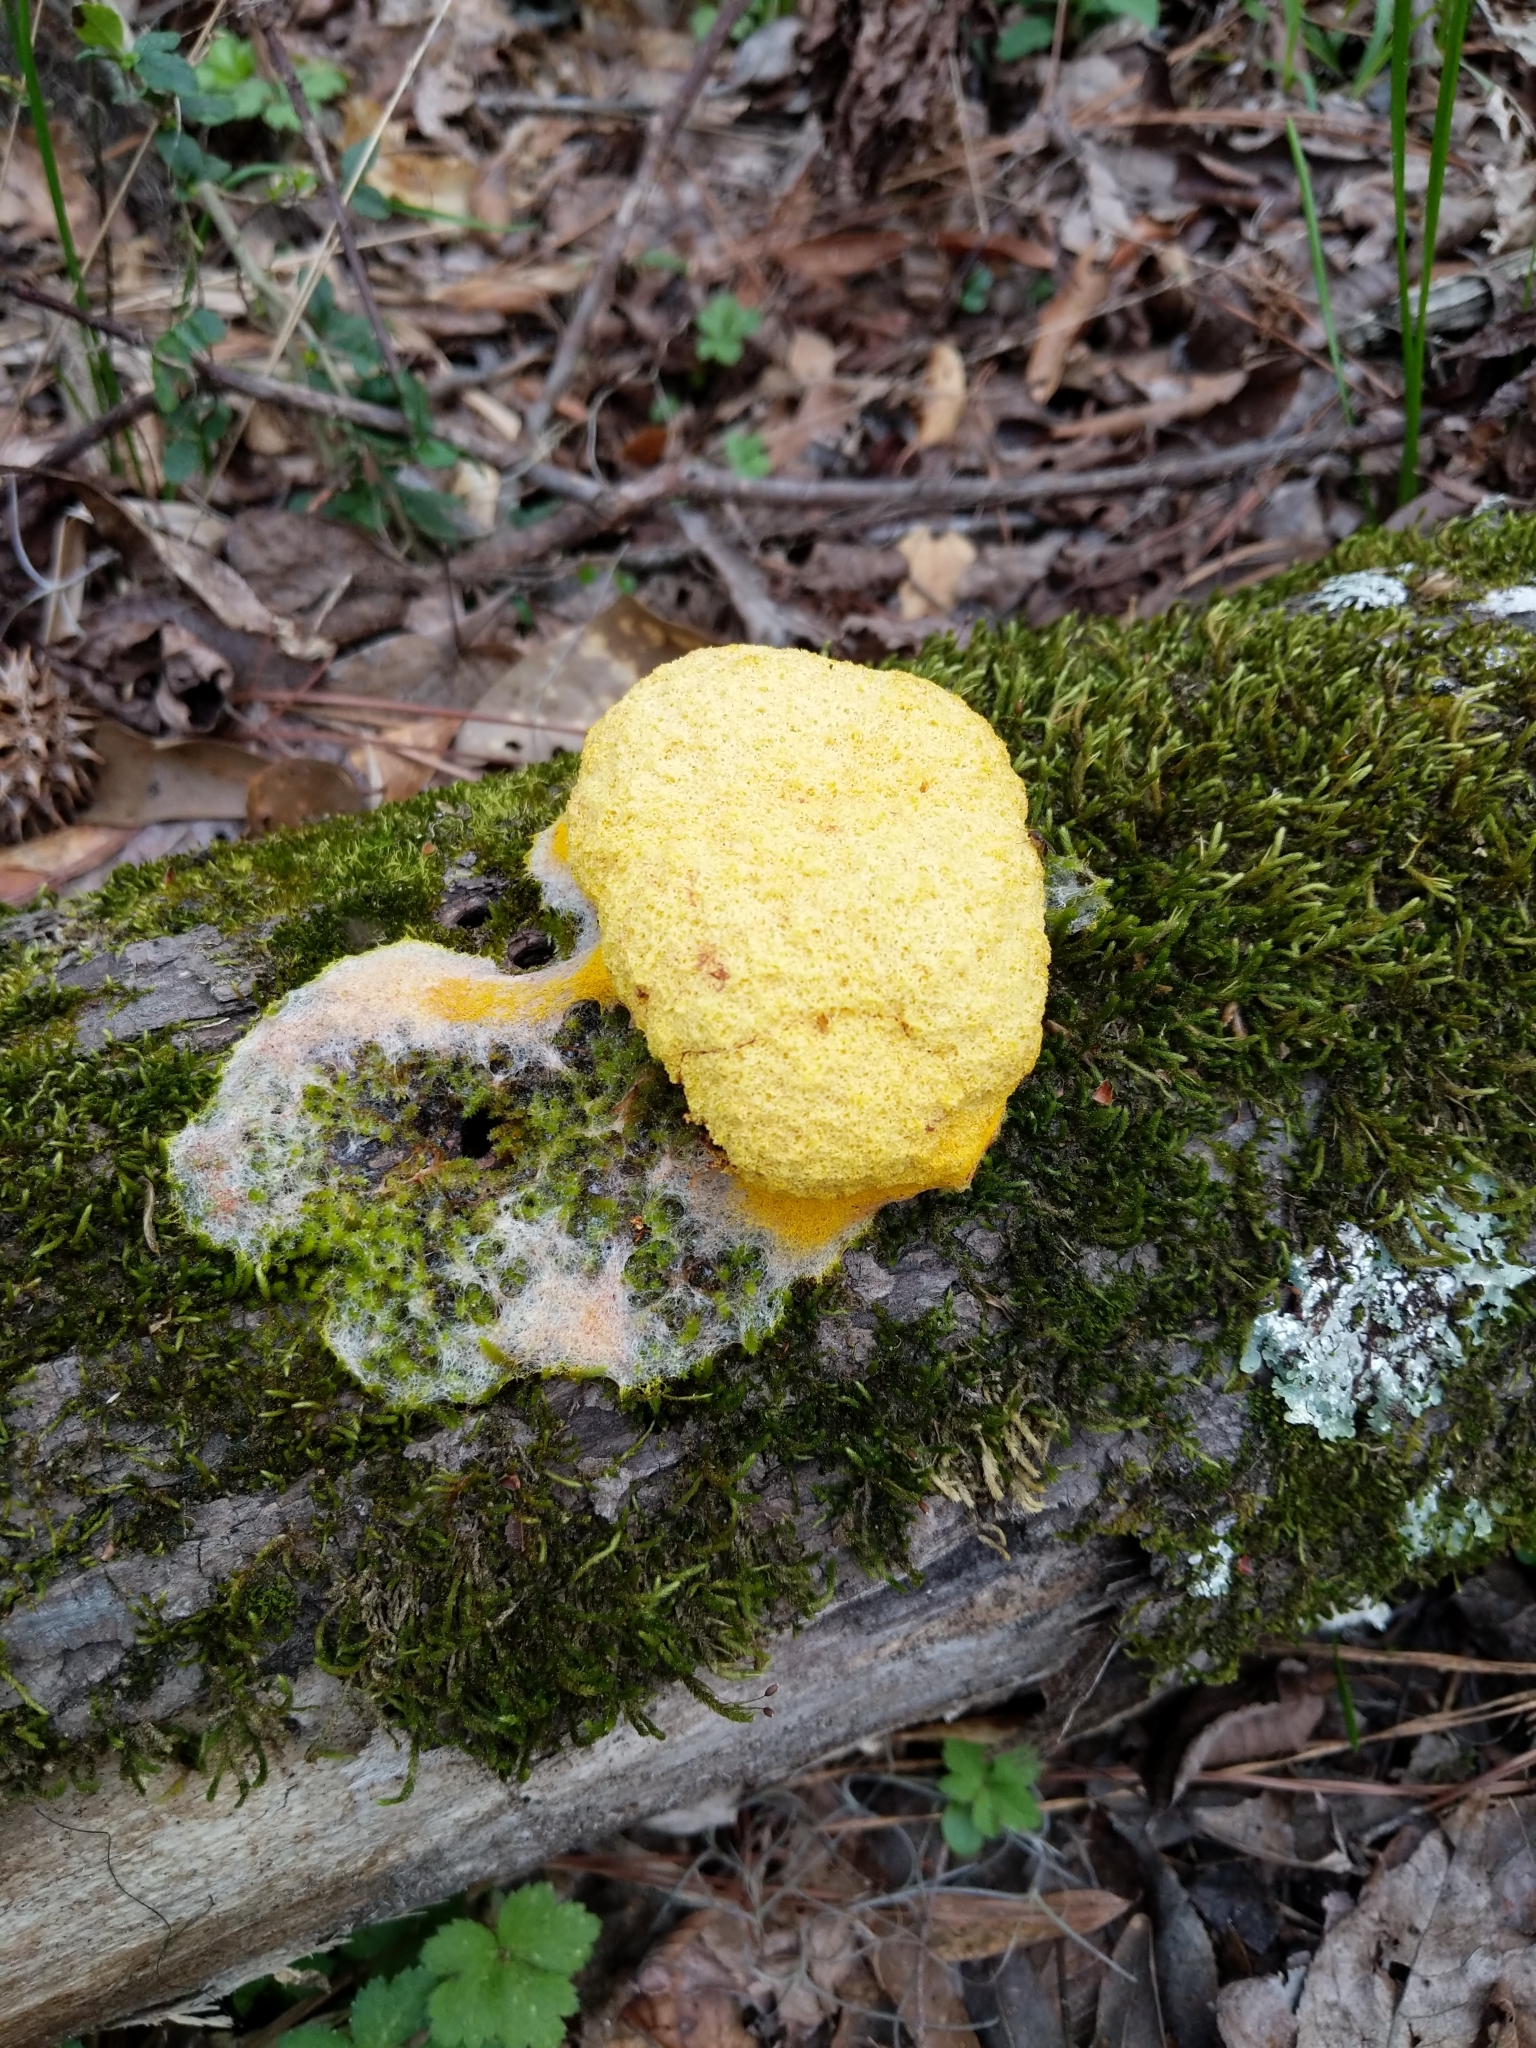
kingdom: Protozoa
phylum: Mycetozoa
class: Myxomycetes
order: Physarales
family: Physaraceae
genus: Fuligo
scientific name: Fuligo septica
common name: Dog vomit slime mold
